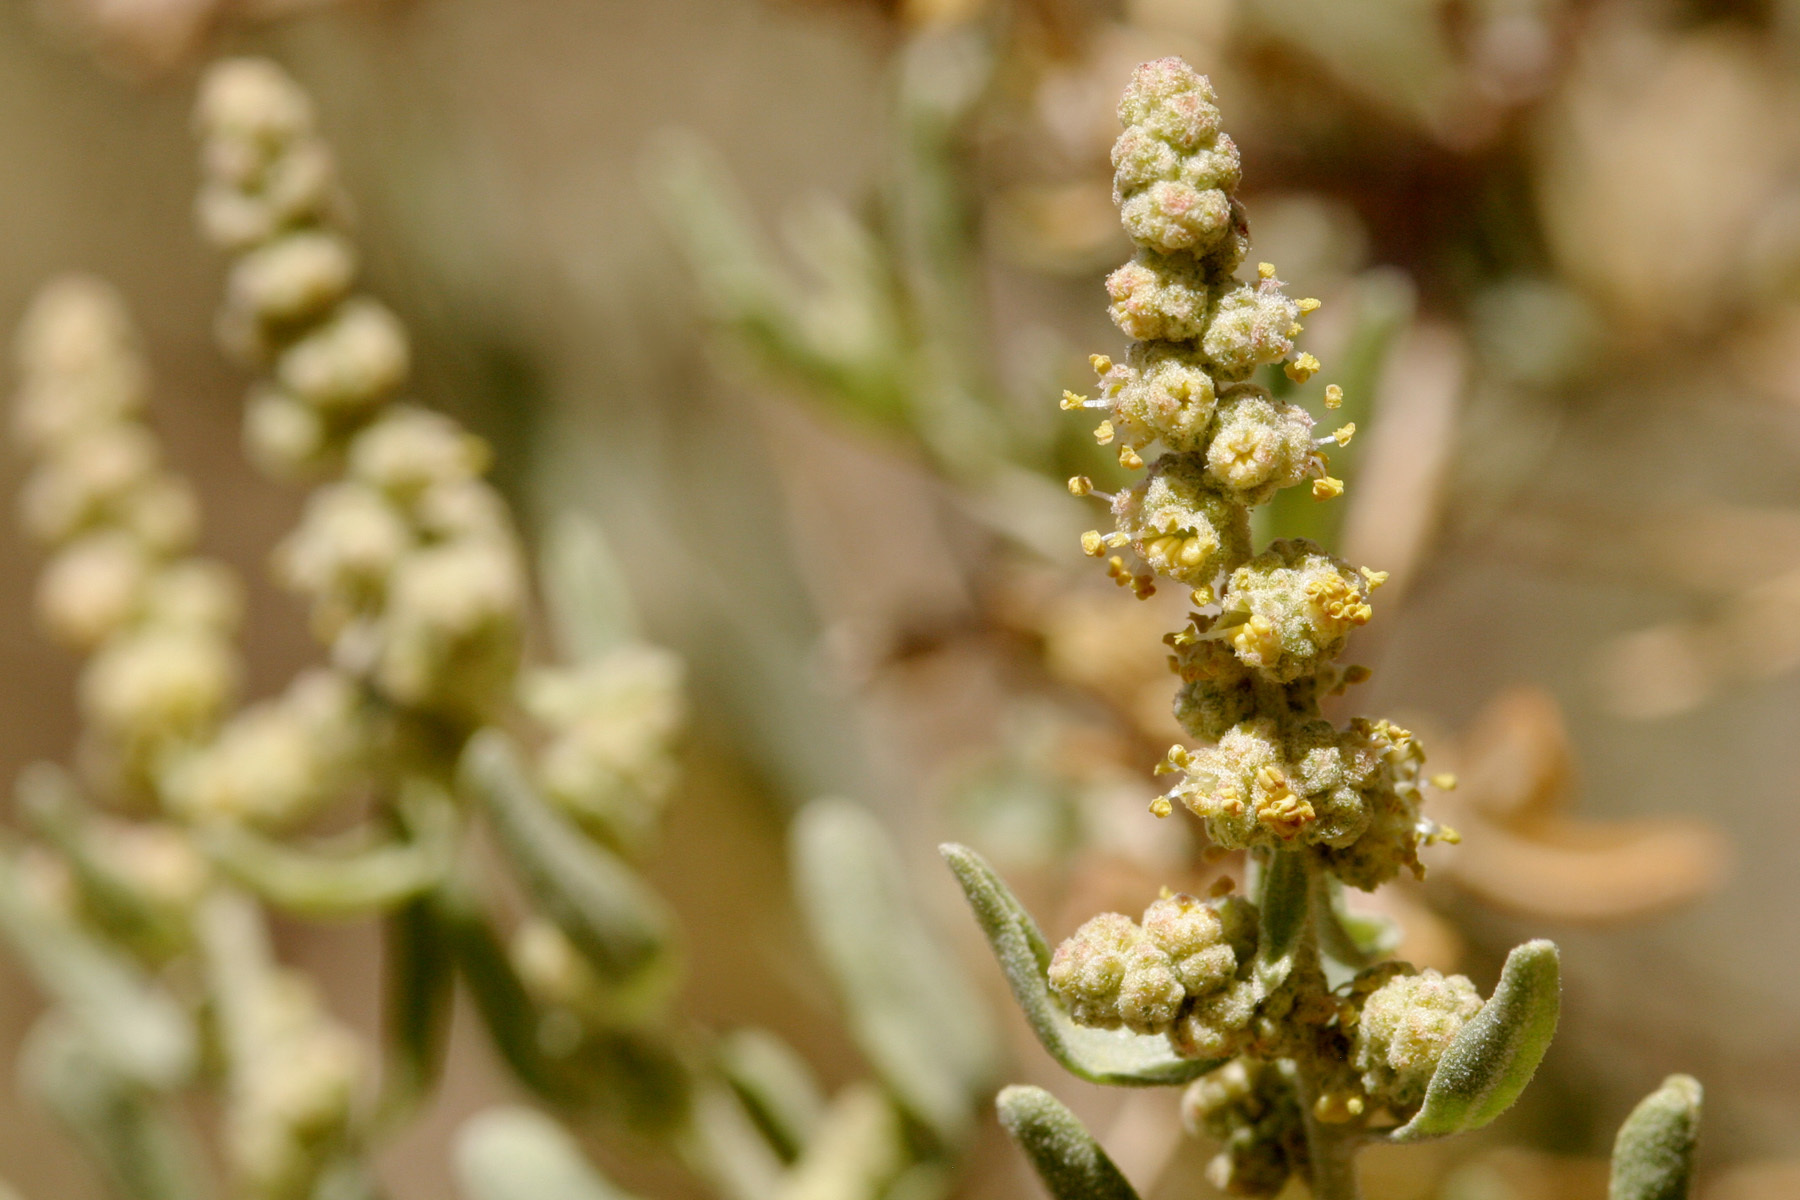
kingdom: Plantae
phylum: Tracheophyta
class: Magnoliopsida
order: Caryophyllales
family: Amaranthaceae
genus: Atriplex
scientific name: Atriplex canescens
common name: Four-wing saltbush
